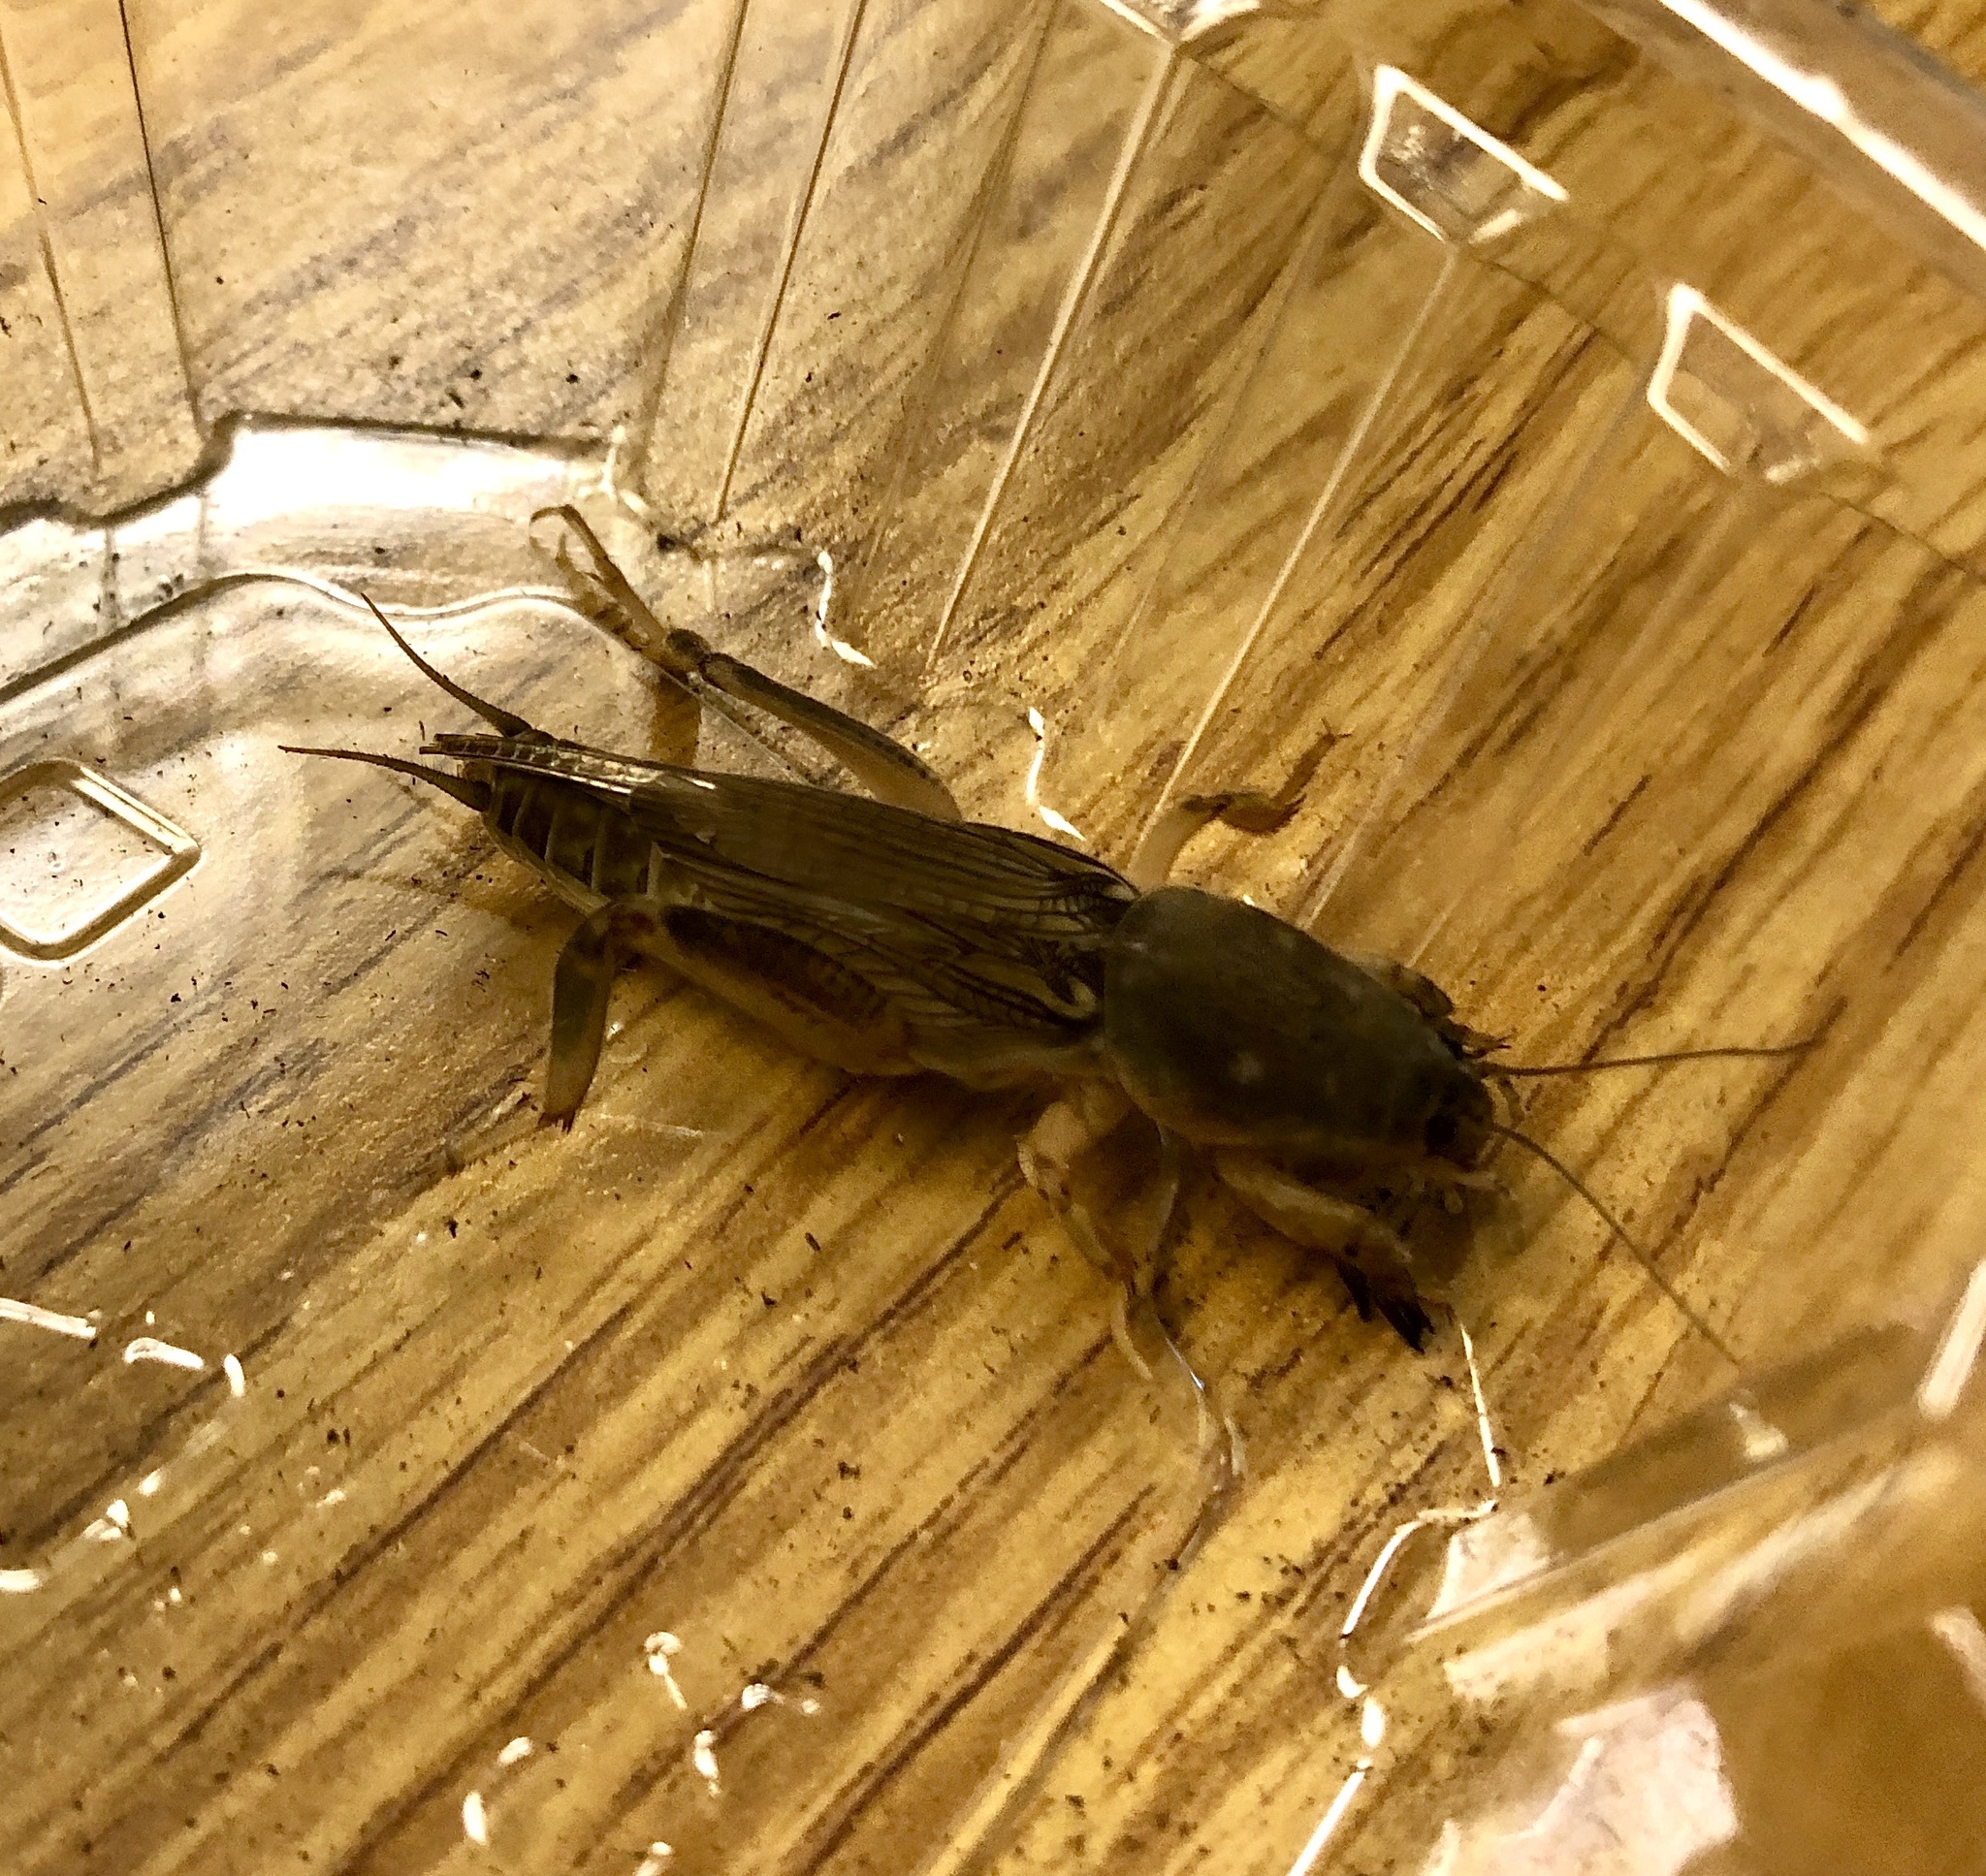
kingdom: Animalia
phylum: Arthropoda
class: Insecta
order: Orthoptera
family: Gryllotalpidae
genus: Neoscapteriscus
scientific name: Neoscapteriscus borellii
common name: Southern mole cricket
